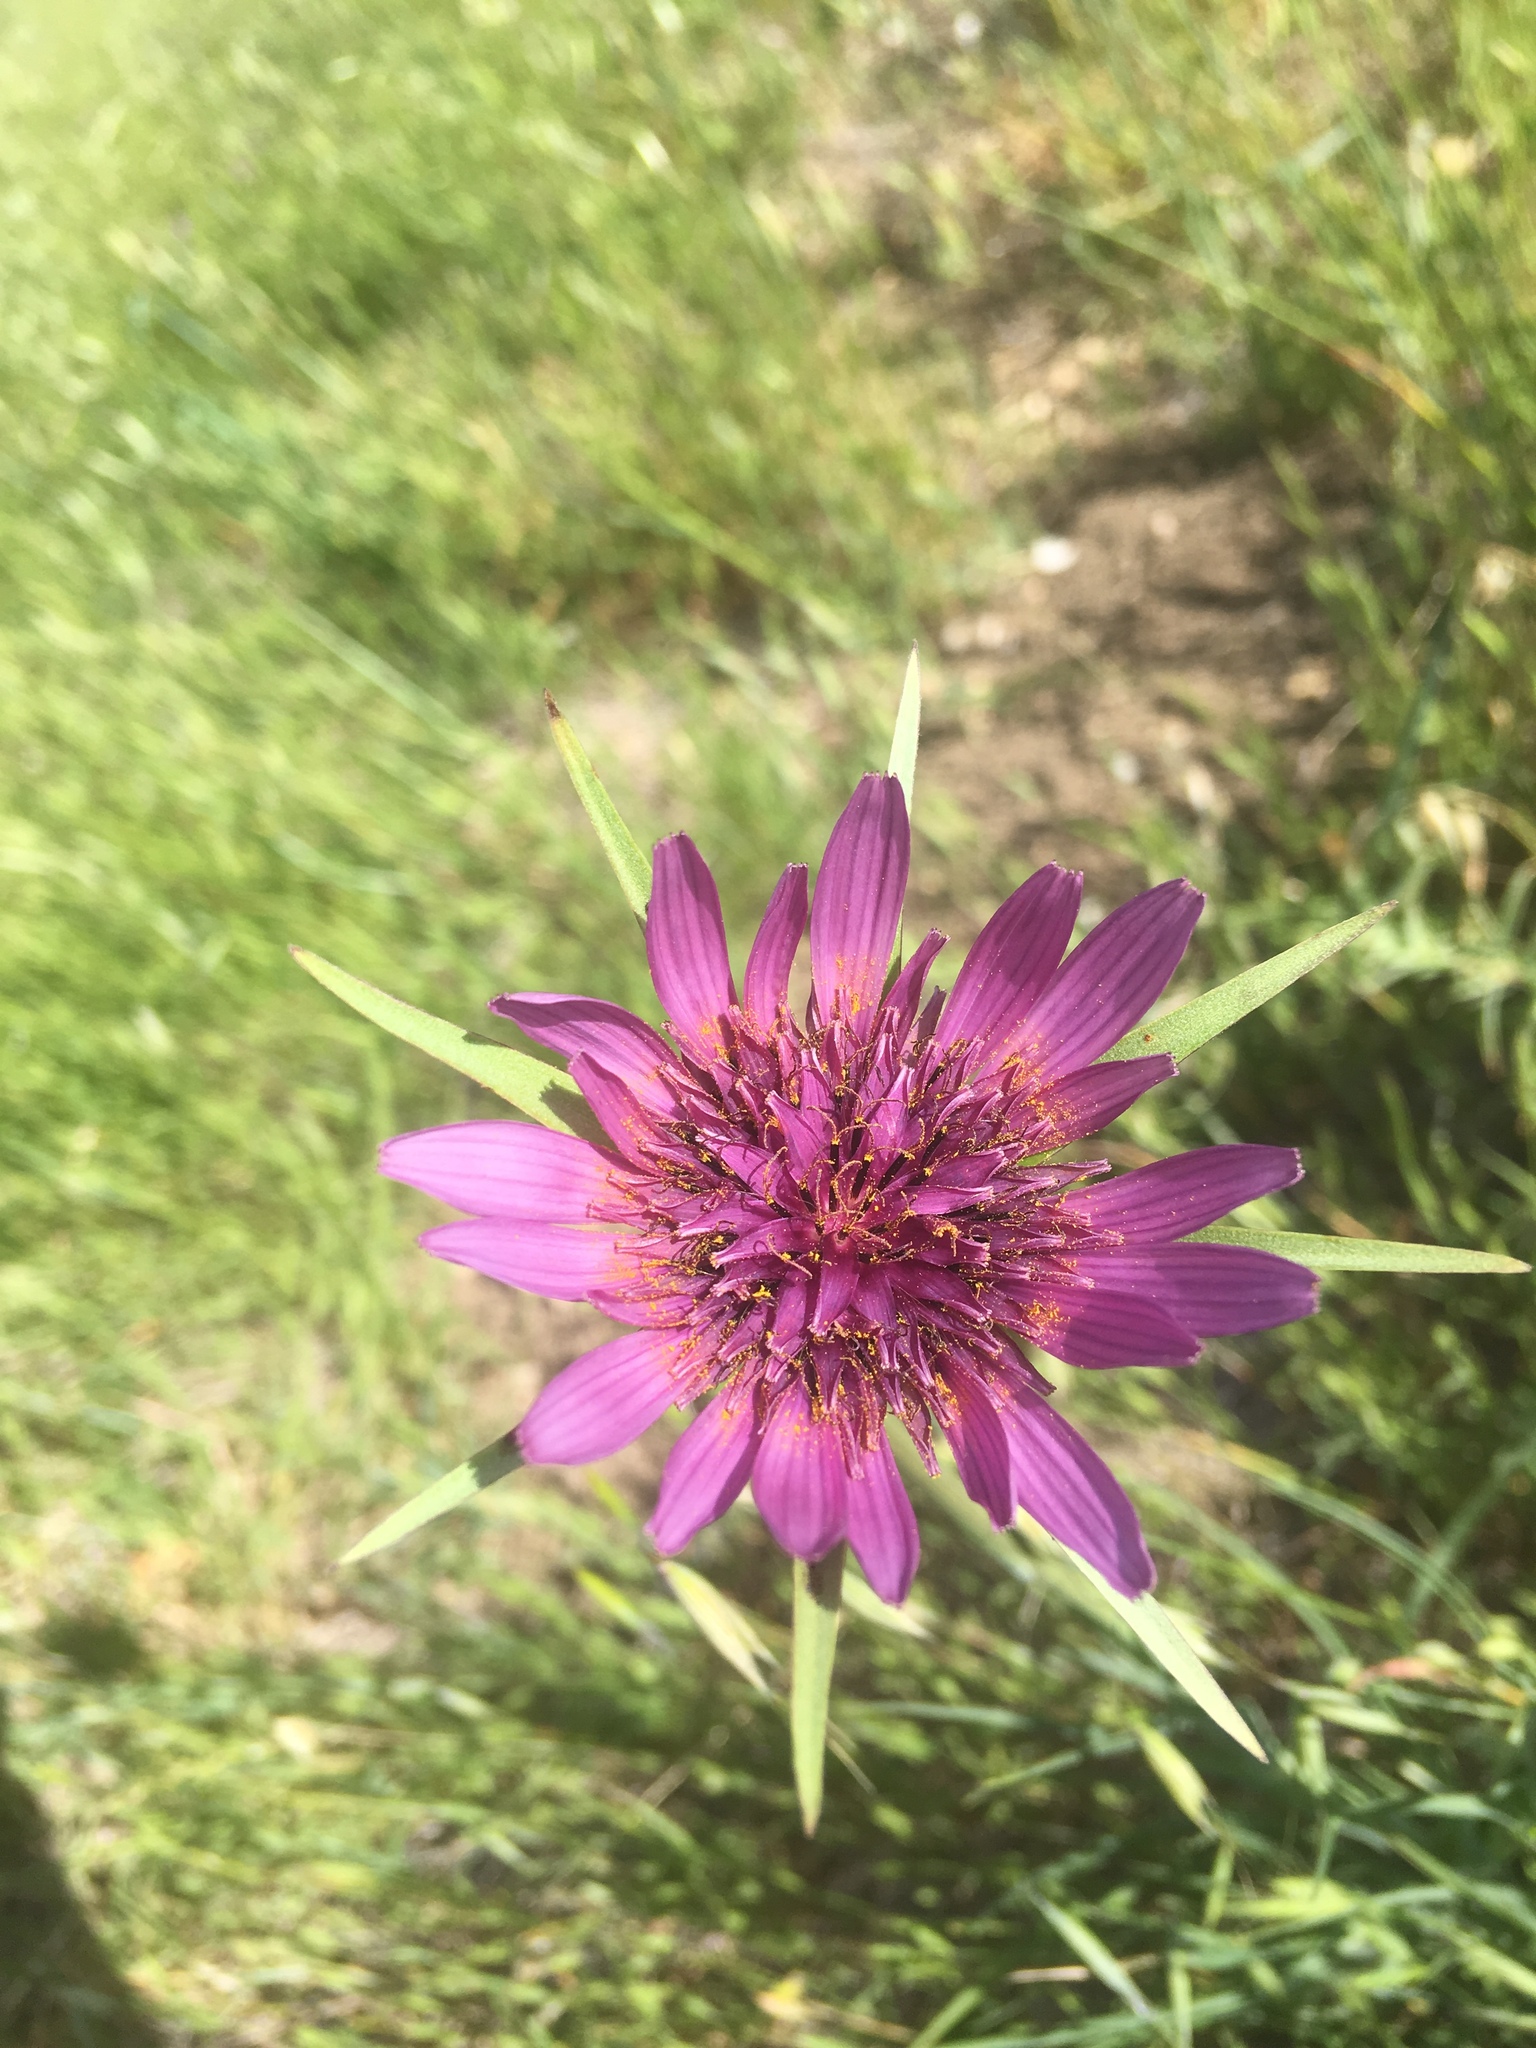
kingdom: Plantae
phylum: Tracheophyta
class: Magnoliopsida
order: Asterales
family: Asteraceae
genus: Tragopogon
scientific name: Tragopogon porrifolius
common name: Salsify
